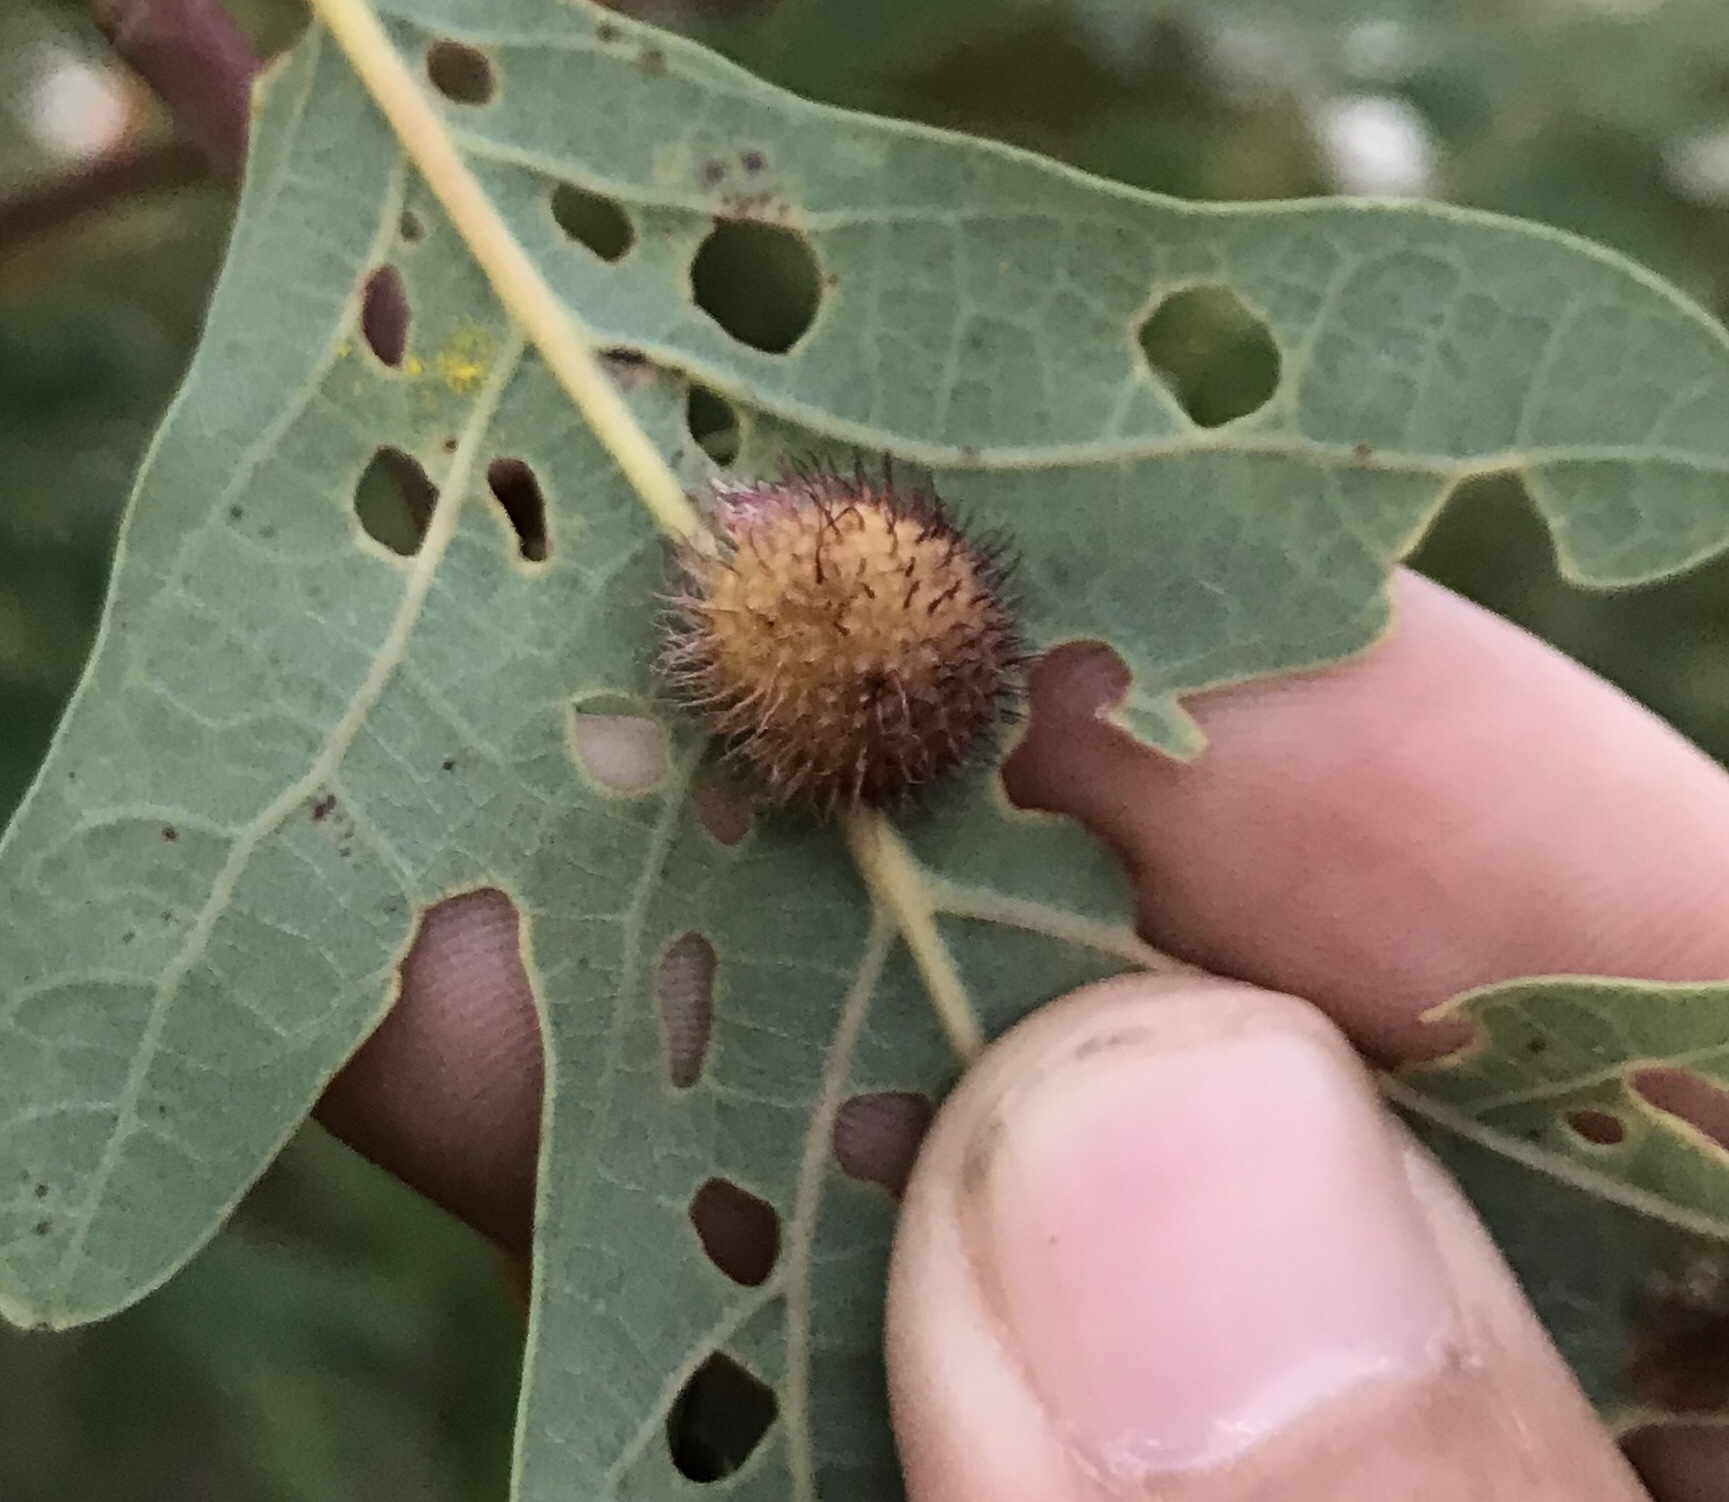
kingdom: Animalia
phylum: Arthropoda
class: Insecta
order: Hymenoptera
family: Cynipidae
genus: Acraspis
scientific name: Acraspis erinacei
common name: Hedgehog gall wasp
